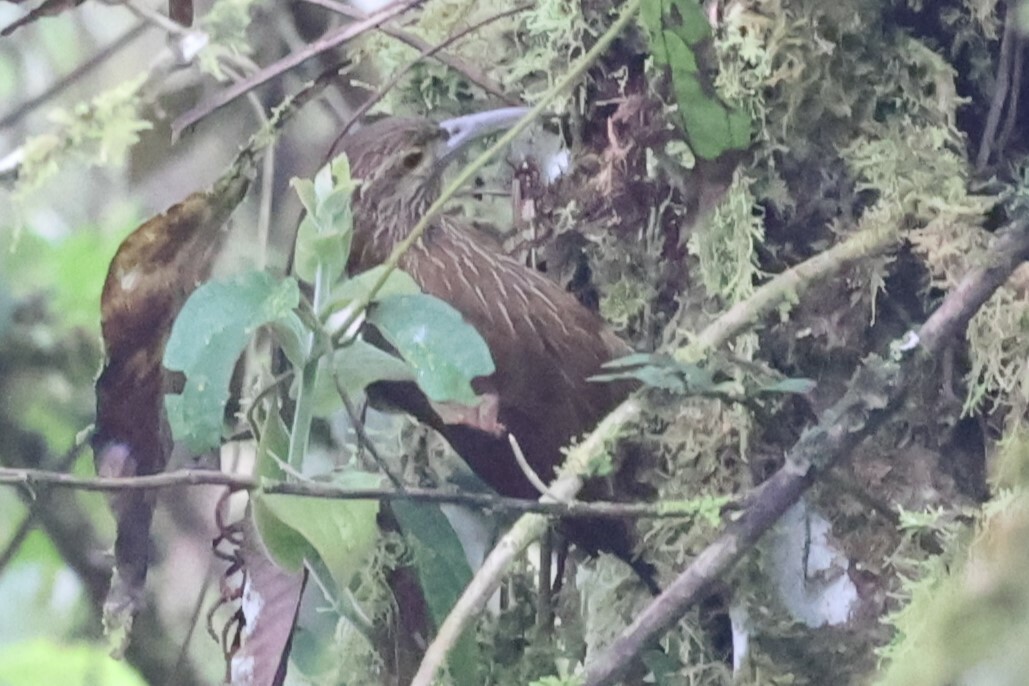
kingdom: Animalia
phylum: Chordata
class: Aves
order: Passeriformes
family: Furnariidae
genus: Xiphocolaptes
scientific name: Xiphocolaptes promeropirhynchus
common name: Strong-billed woodcreeper
